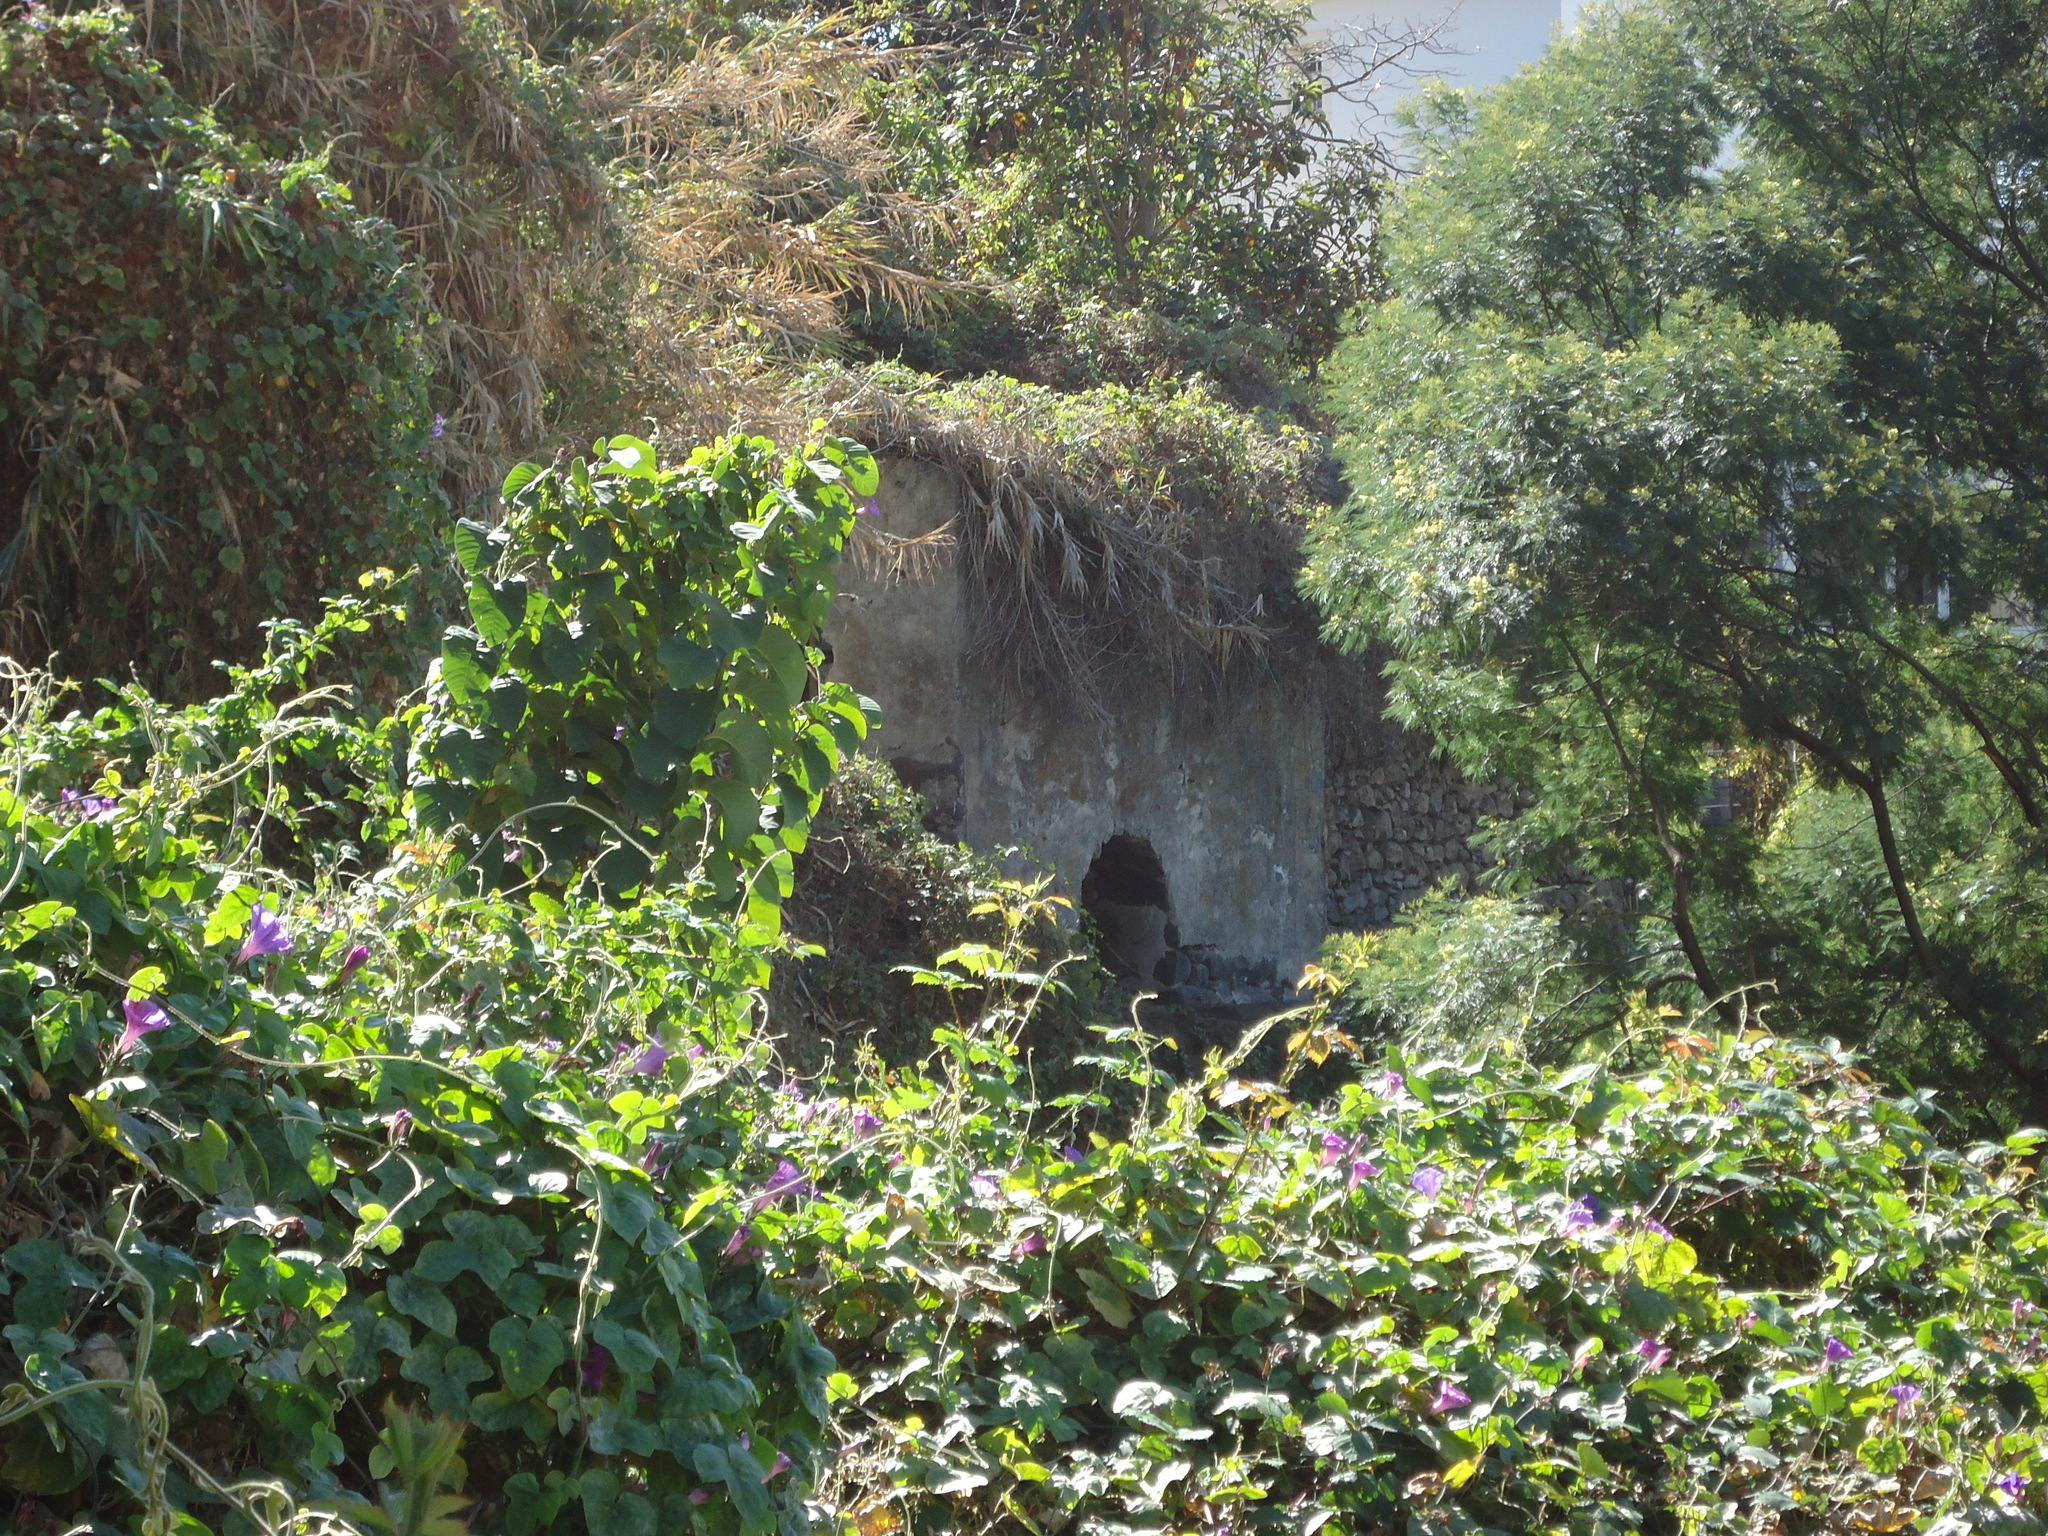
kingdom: Plantae
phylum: Tracheophyta
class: Magnoliopsida
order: Solanales
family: Convolvulaceae
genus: Ipomoea
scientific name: Ipomoea indica
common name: Blue dawnflower
